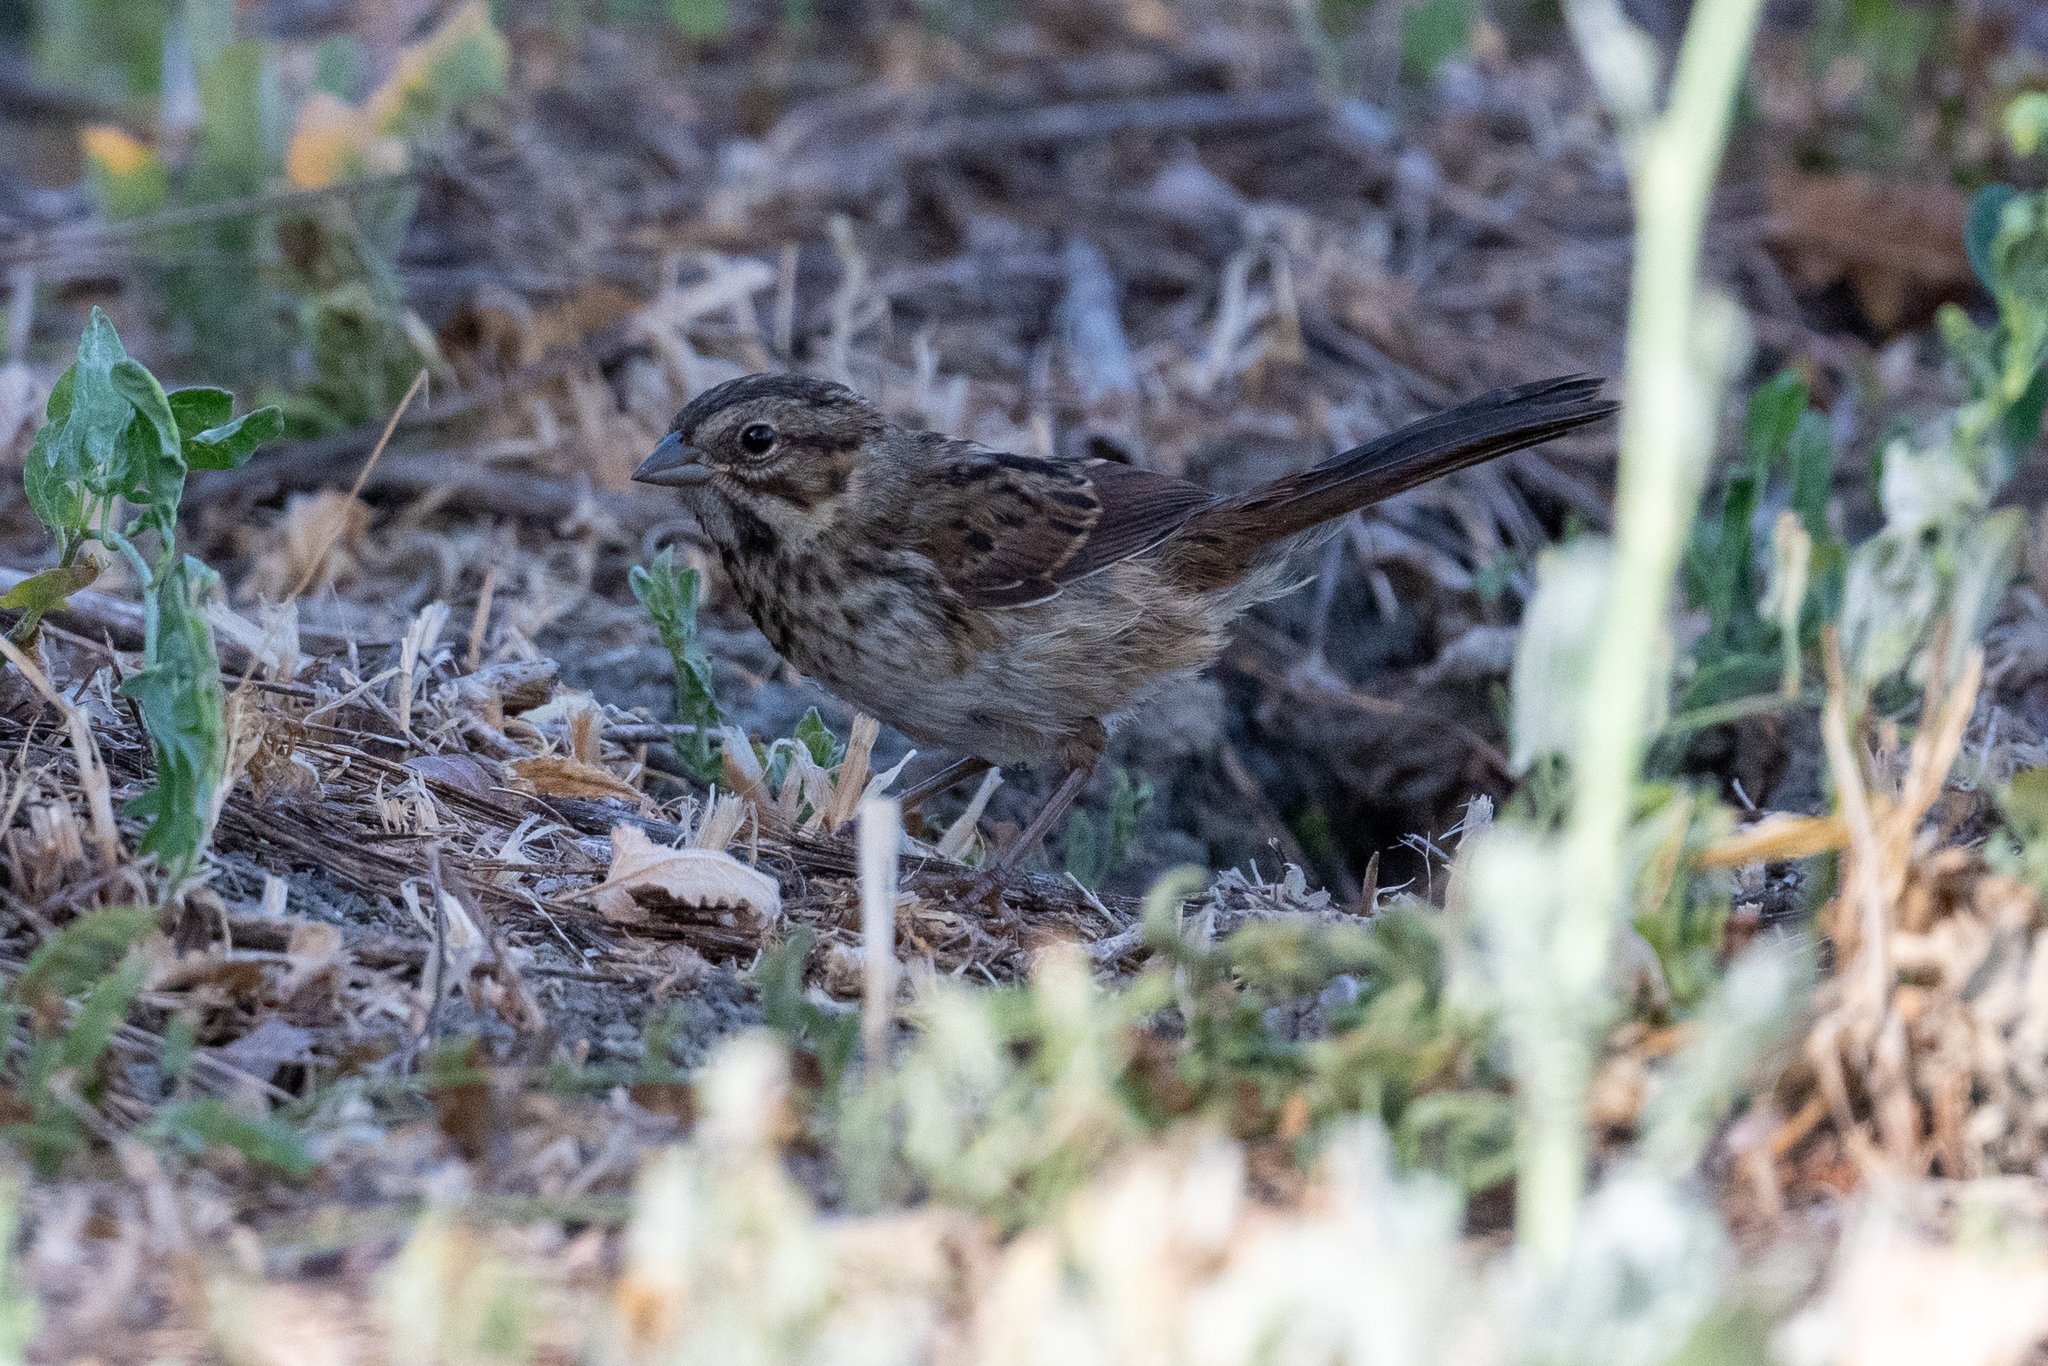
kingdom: Animalia
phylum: Chordata
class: Aves
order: Passeriformes
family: Passerellidae
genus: Melospiza
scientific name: Melospiza melodia
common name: Song sparrow
